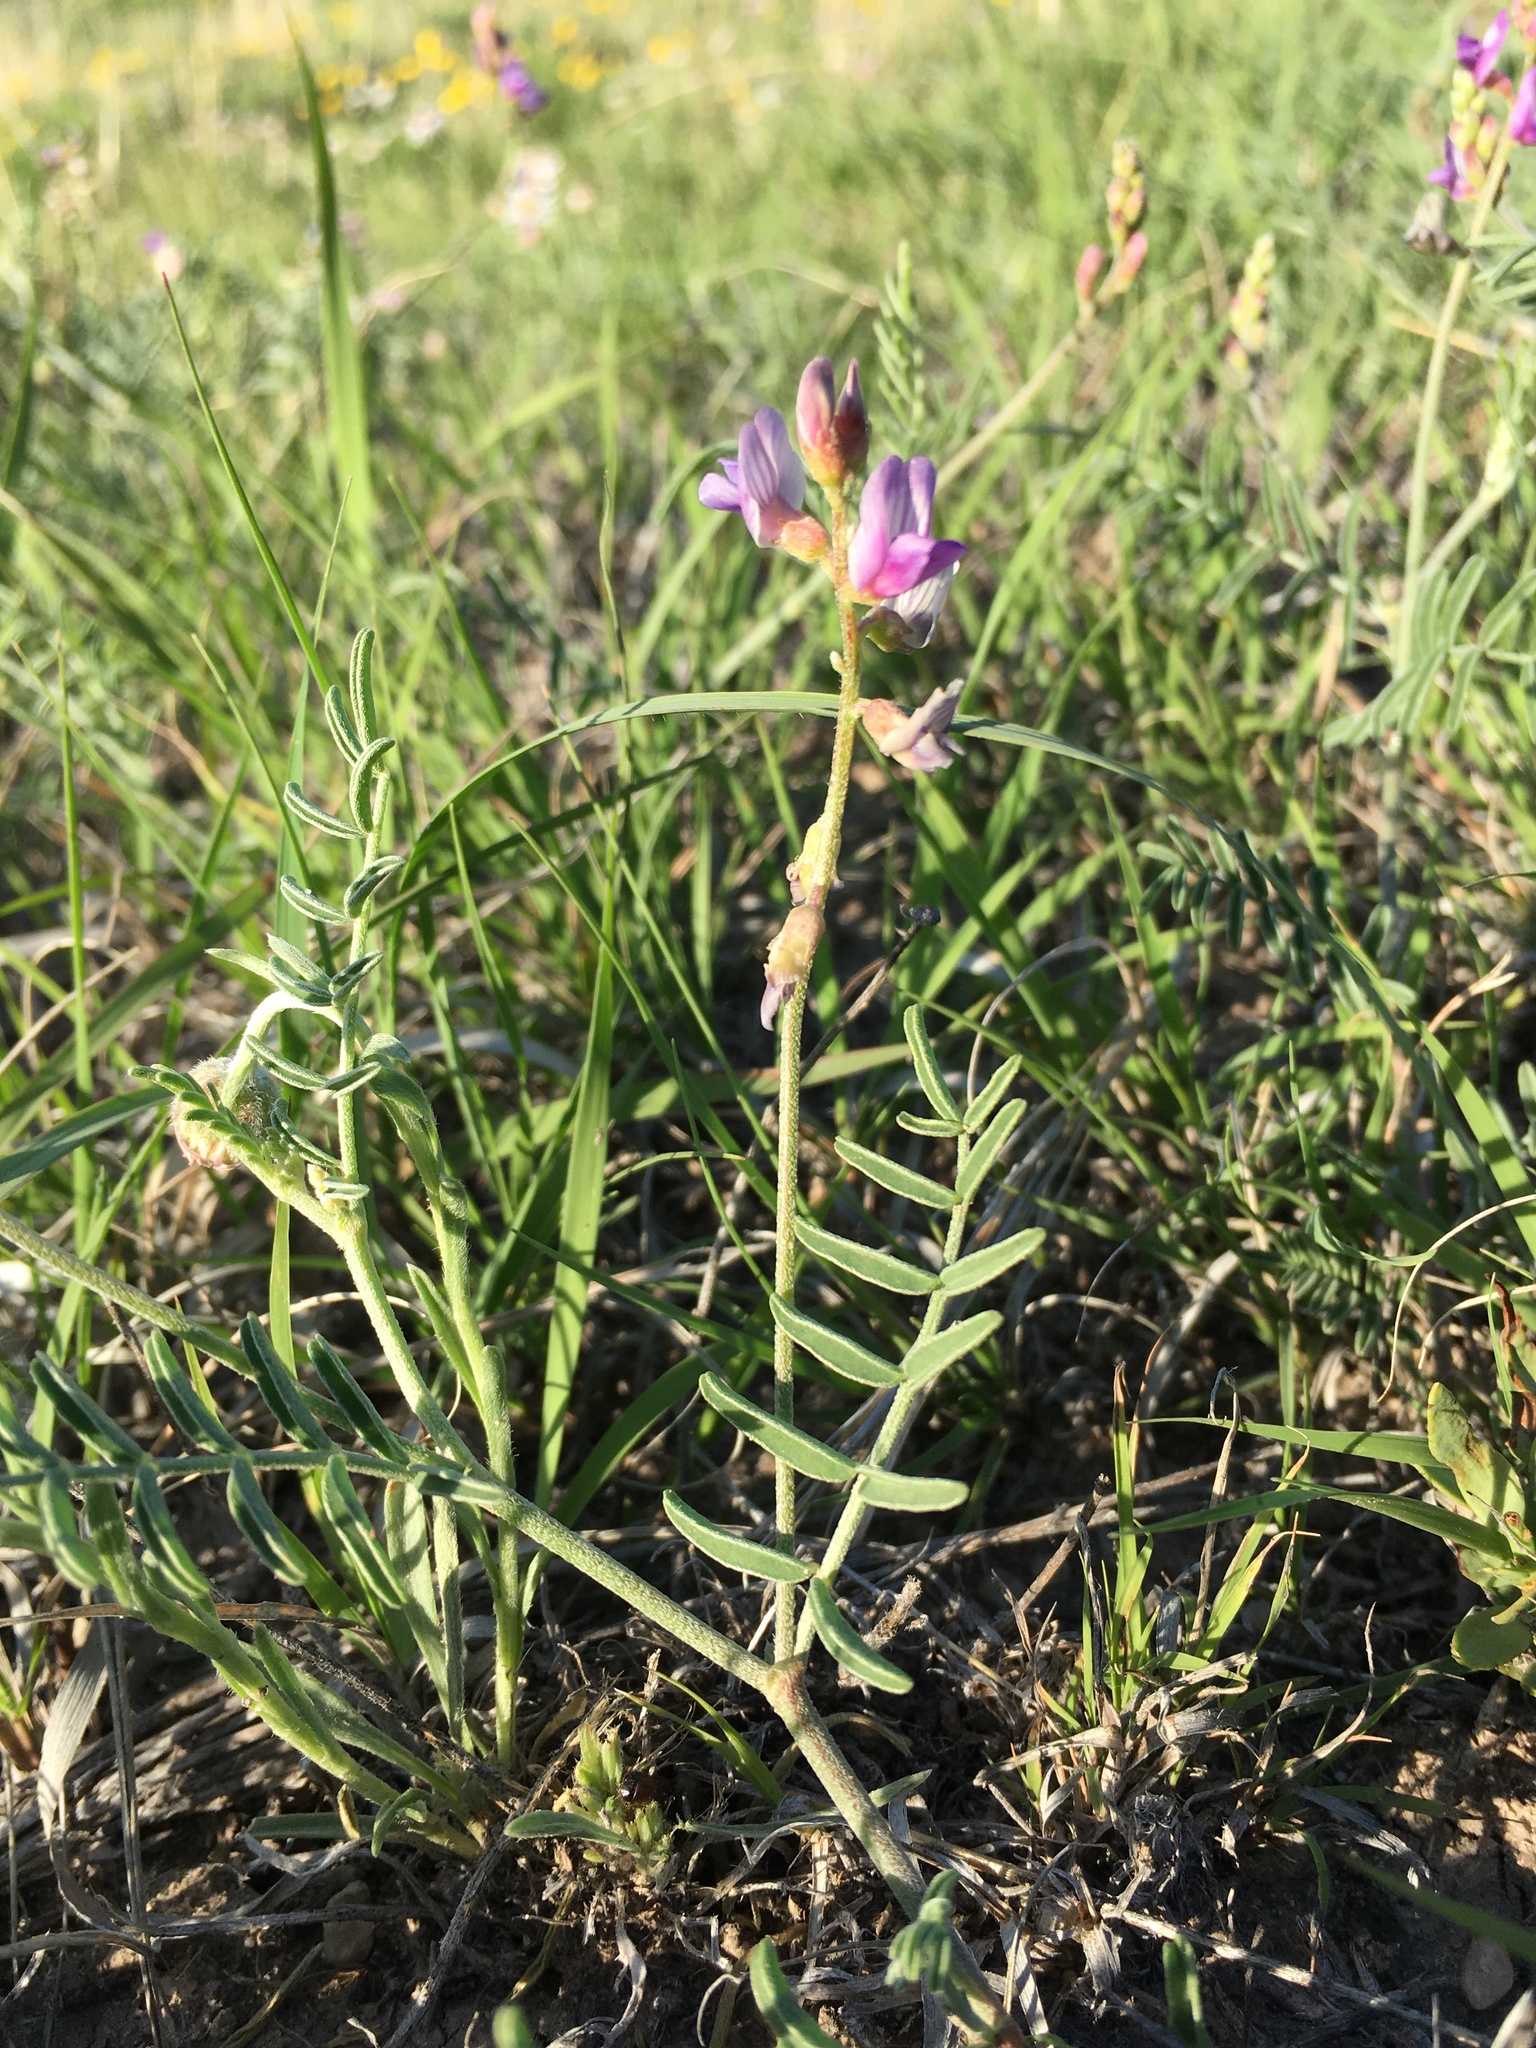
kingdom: Plantae
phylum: Tracheophyta
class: Magnoliopsida
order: Fabales
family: Fabaceae
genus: Astragalus
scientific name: Astragalus gracilis
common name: Slender milk-vetch
